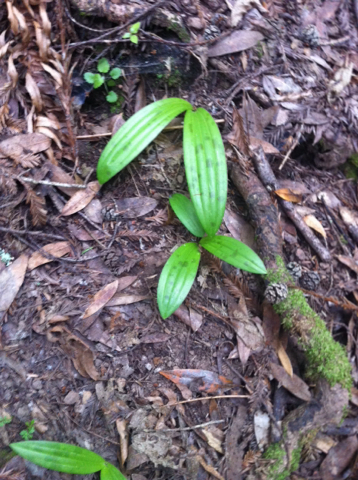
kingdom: Plantae
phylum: Tracheophyta
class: Liliopsida
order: Liliales
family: Liliaceae
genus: Scoliopus
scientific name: Scoliopus bigelovii
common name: Foetid adder's-tongue
